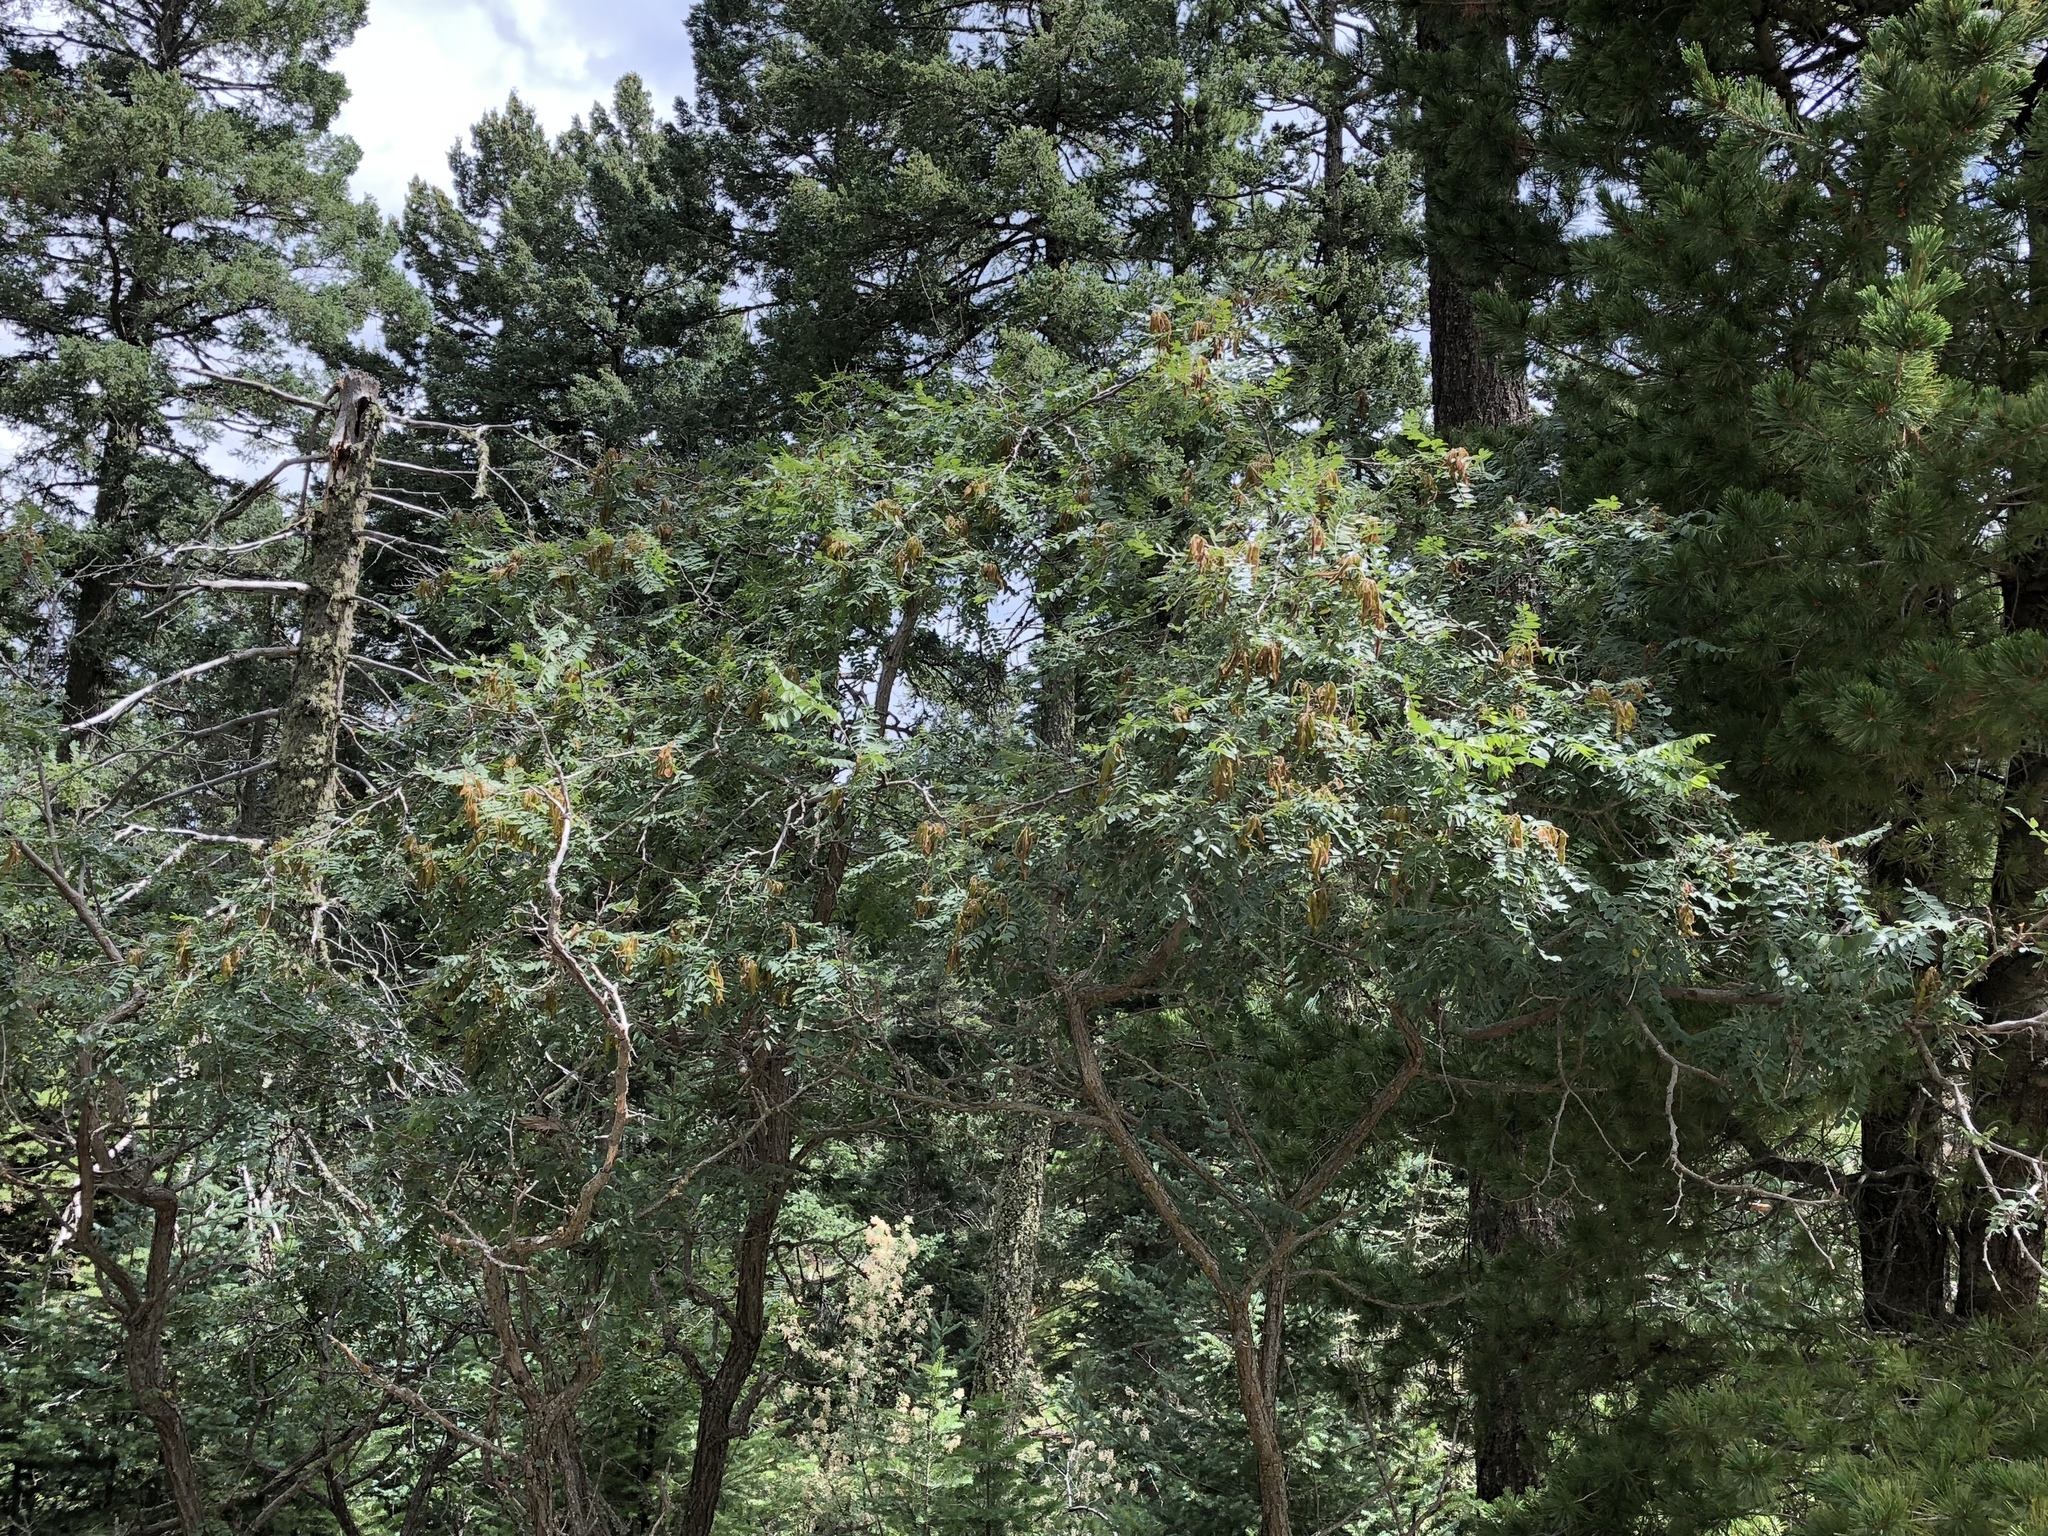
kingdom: Plantae
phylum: Tracheophyta
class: Magnoliopsida
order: Fabales
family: Fabaceae
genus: Robinia
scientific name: Robinia neomexicana
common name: New mexico locust
